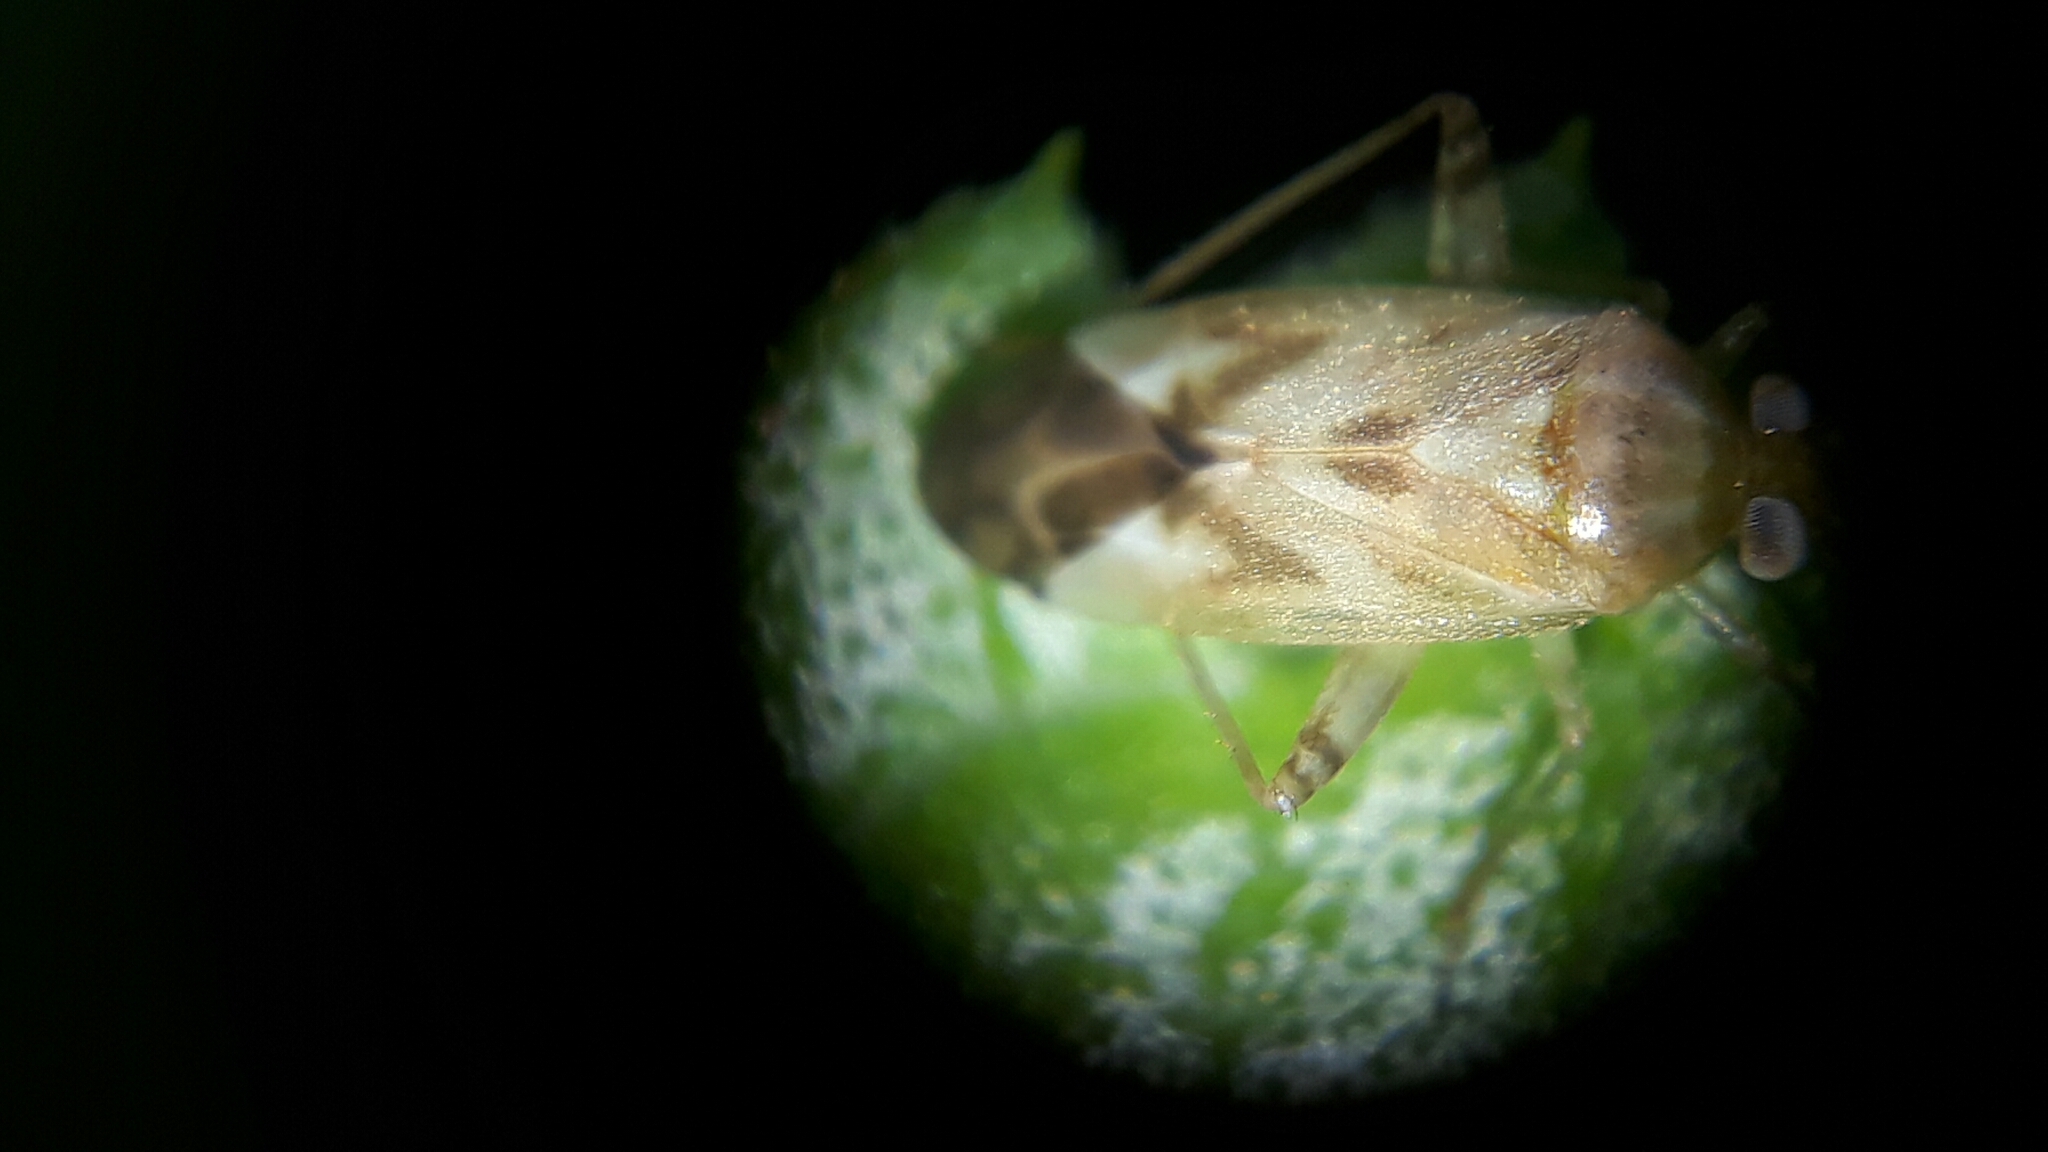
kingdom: Animalia
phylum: Arthropoda
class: Insecta
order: Hemiptera
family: Miridae
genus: Taylorilygus
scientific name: Taylorilygus apicalis
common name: Plant bug
